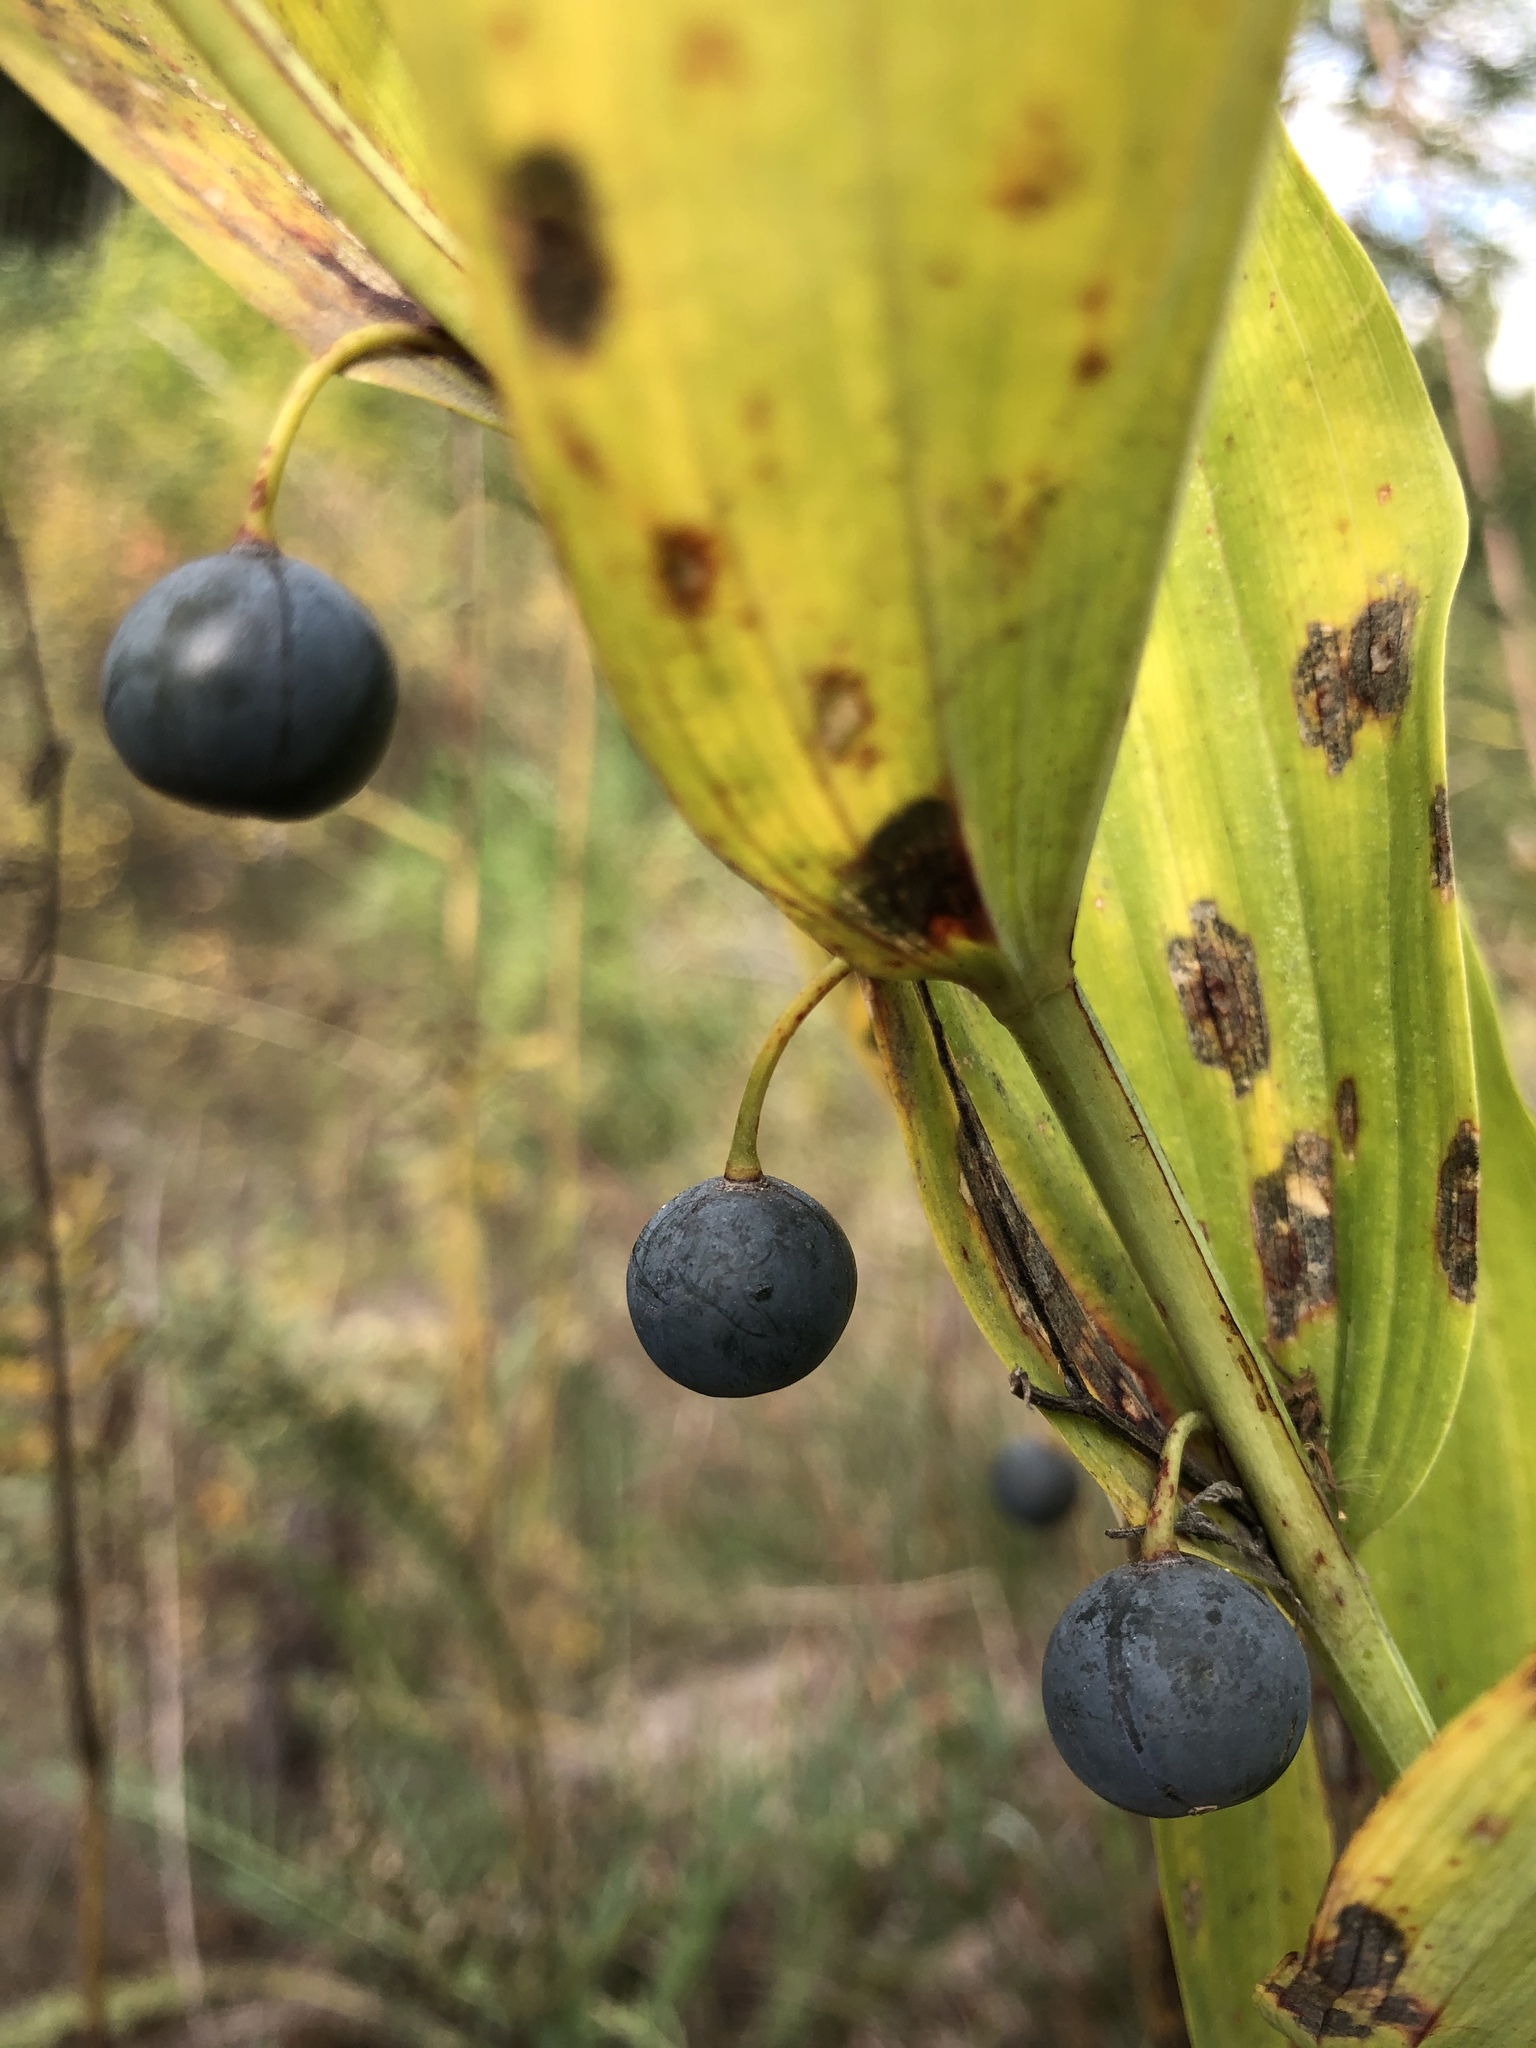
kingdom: Plantae
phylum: Tracheophyta
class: Liliopsida
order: Asparagales
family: Asparagaceae
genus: Polygonatum
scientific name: Polygonatum odoratum
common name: Angular solomon's-seal
